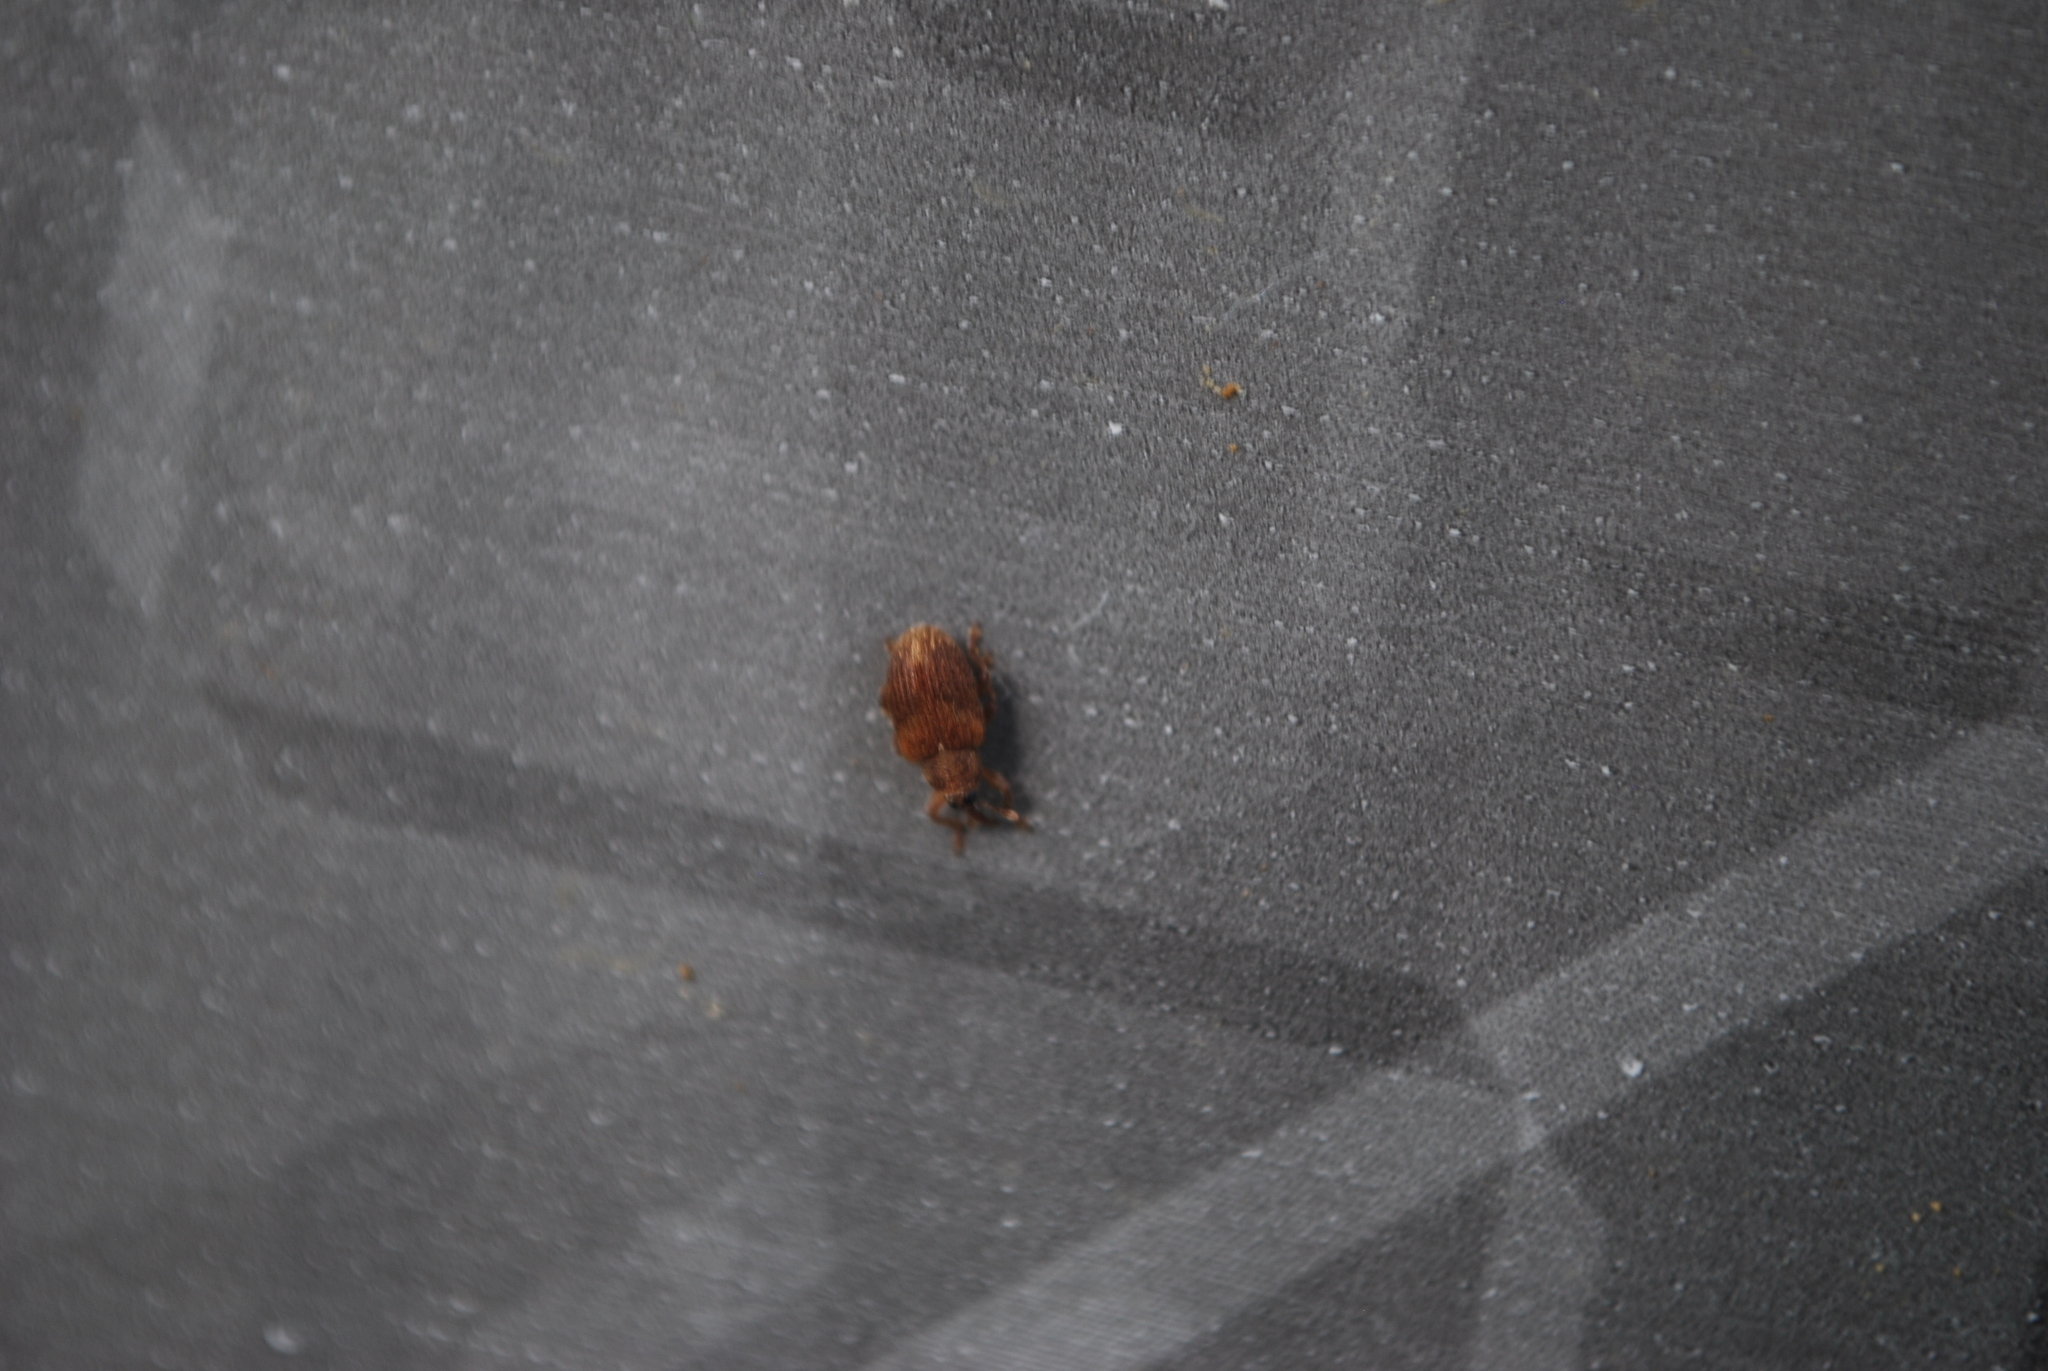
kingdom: Animalia
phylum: Arthropoda
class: Insecta
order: Coleoptera
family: Curculionidae
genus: Lignyodes
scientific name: Lignyodes fraxini
